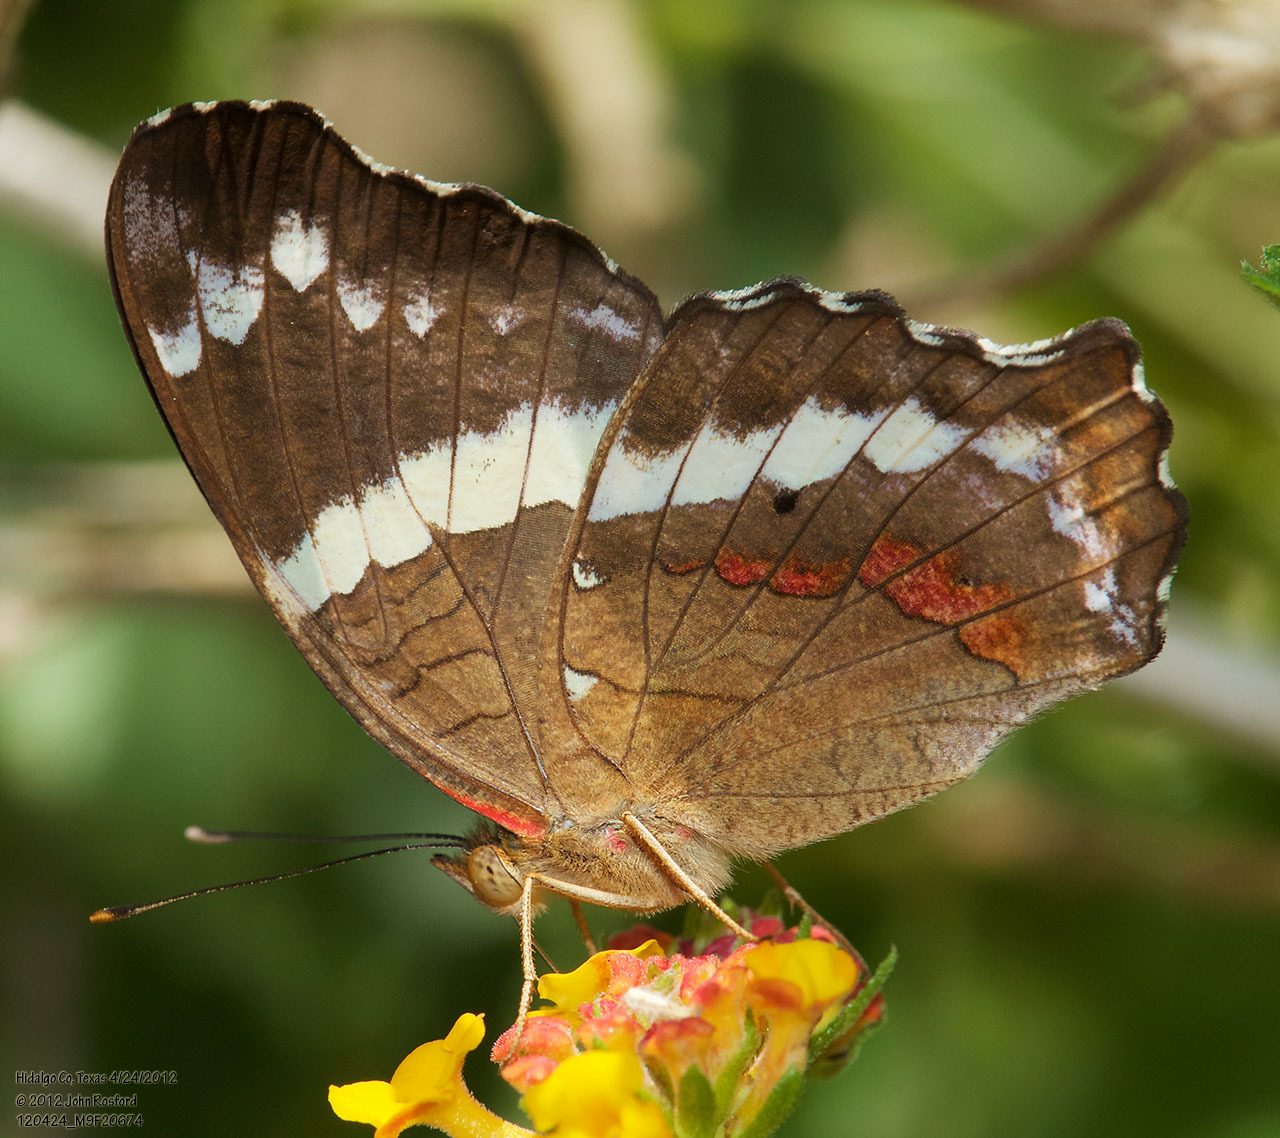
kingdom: Animalia
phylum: Arthropoda
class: Insecta
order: Lepidoptera
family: Nymphalidae
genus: Anartia
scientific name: Anartia fatima
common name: Banded peacock
